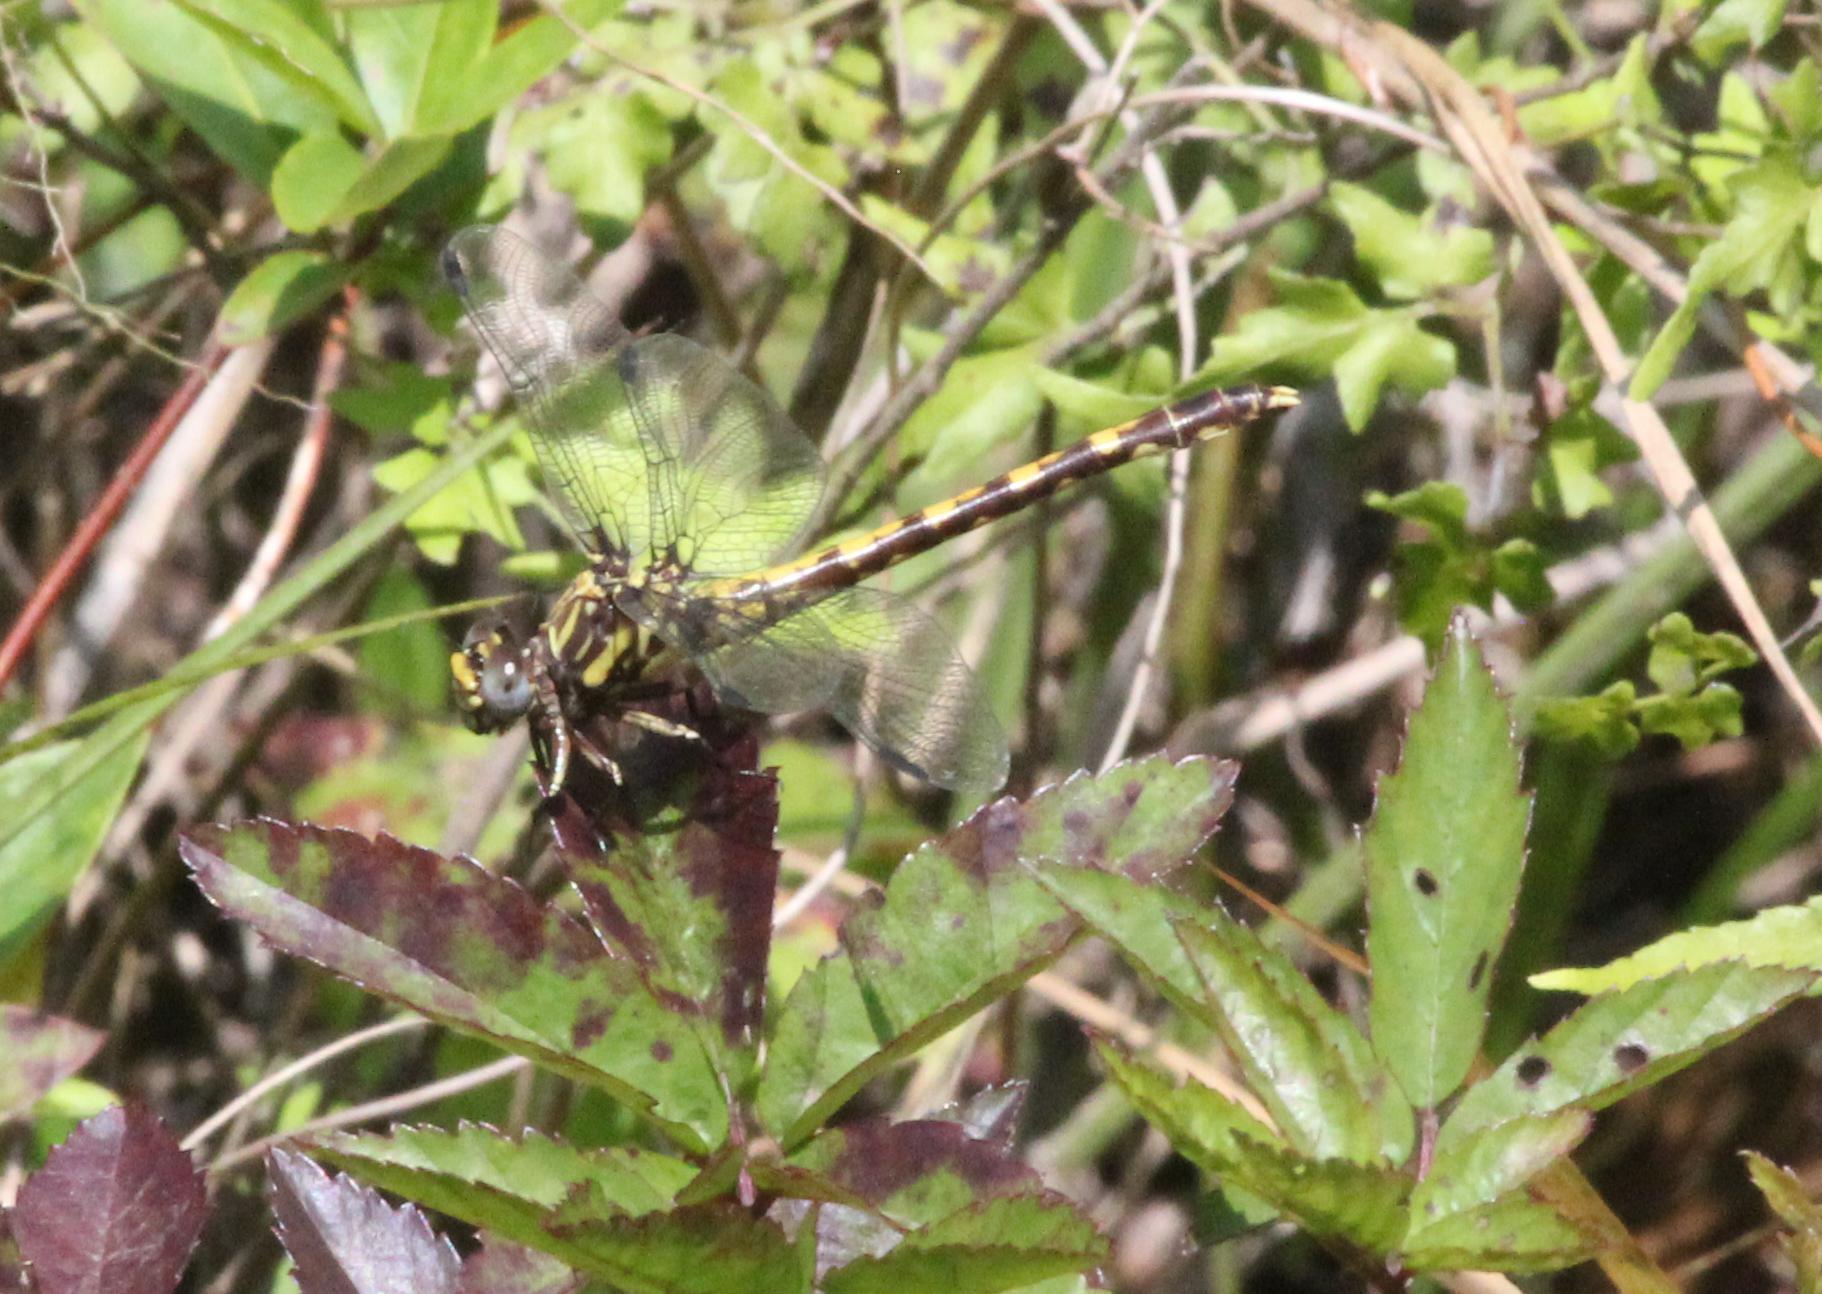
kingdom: Animalia
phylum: Arthropoda
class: Insecta
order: Odonata
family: Gomphidae
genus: Progomphus
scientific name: Progomphus obscurus
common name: Common sanddragon
